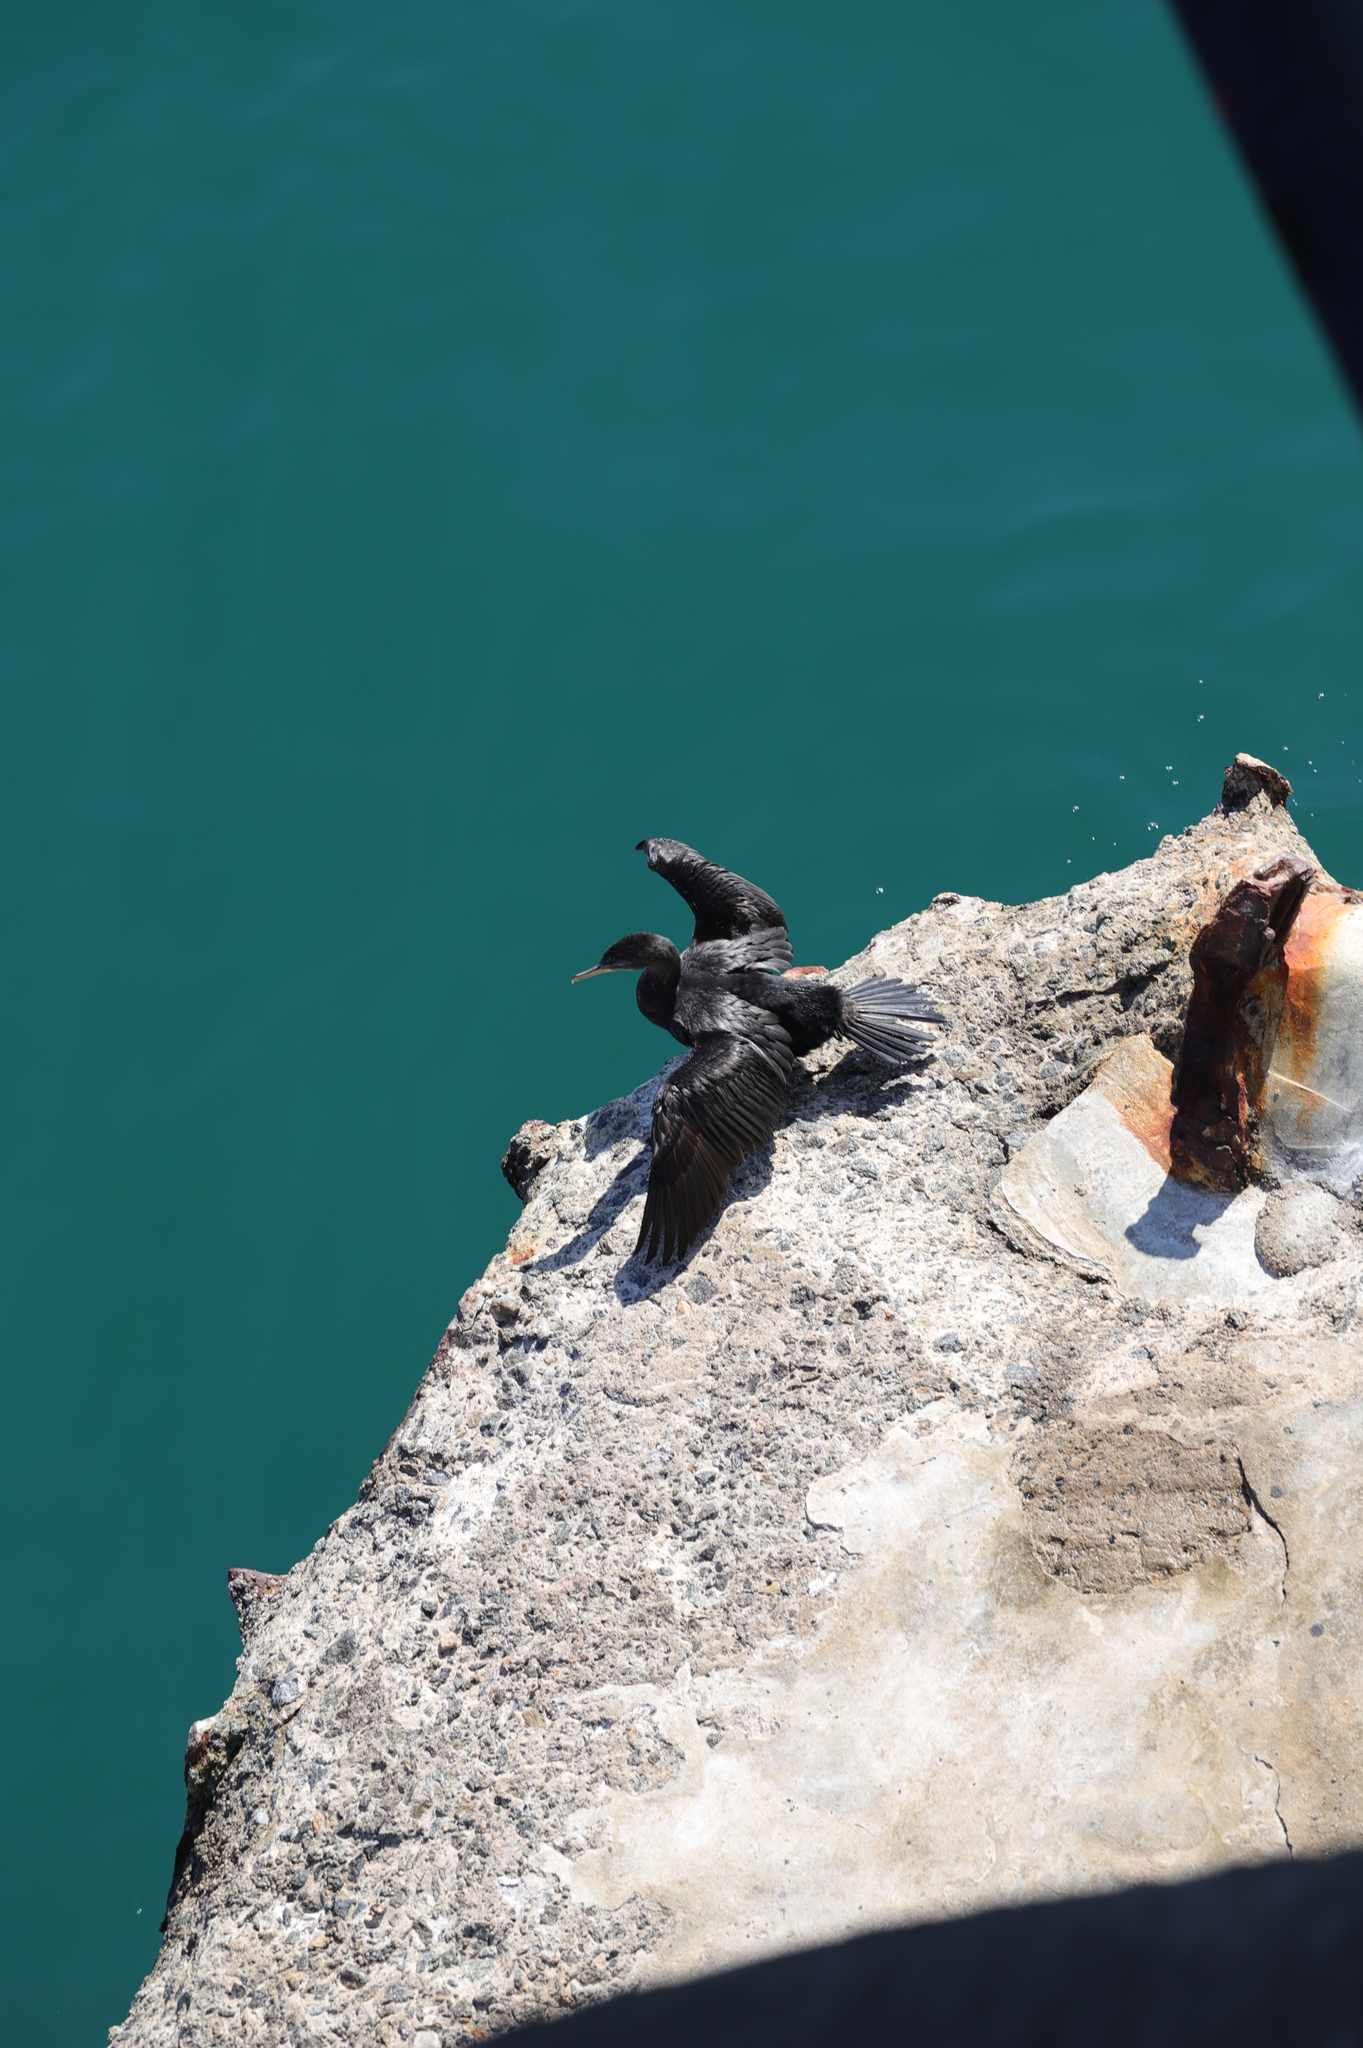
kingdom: Animalia
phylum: Chordata
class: Aves
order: Suliformes
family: Phalacrocoracidae
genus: Phalacrocorax
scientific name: Phalacrocorax brasilianus
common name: Neotropic cormorant
